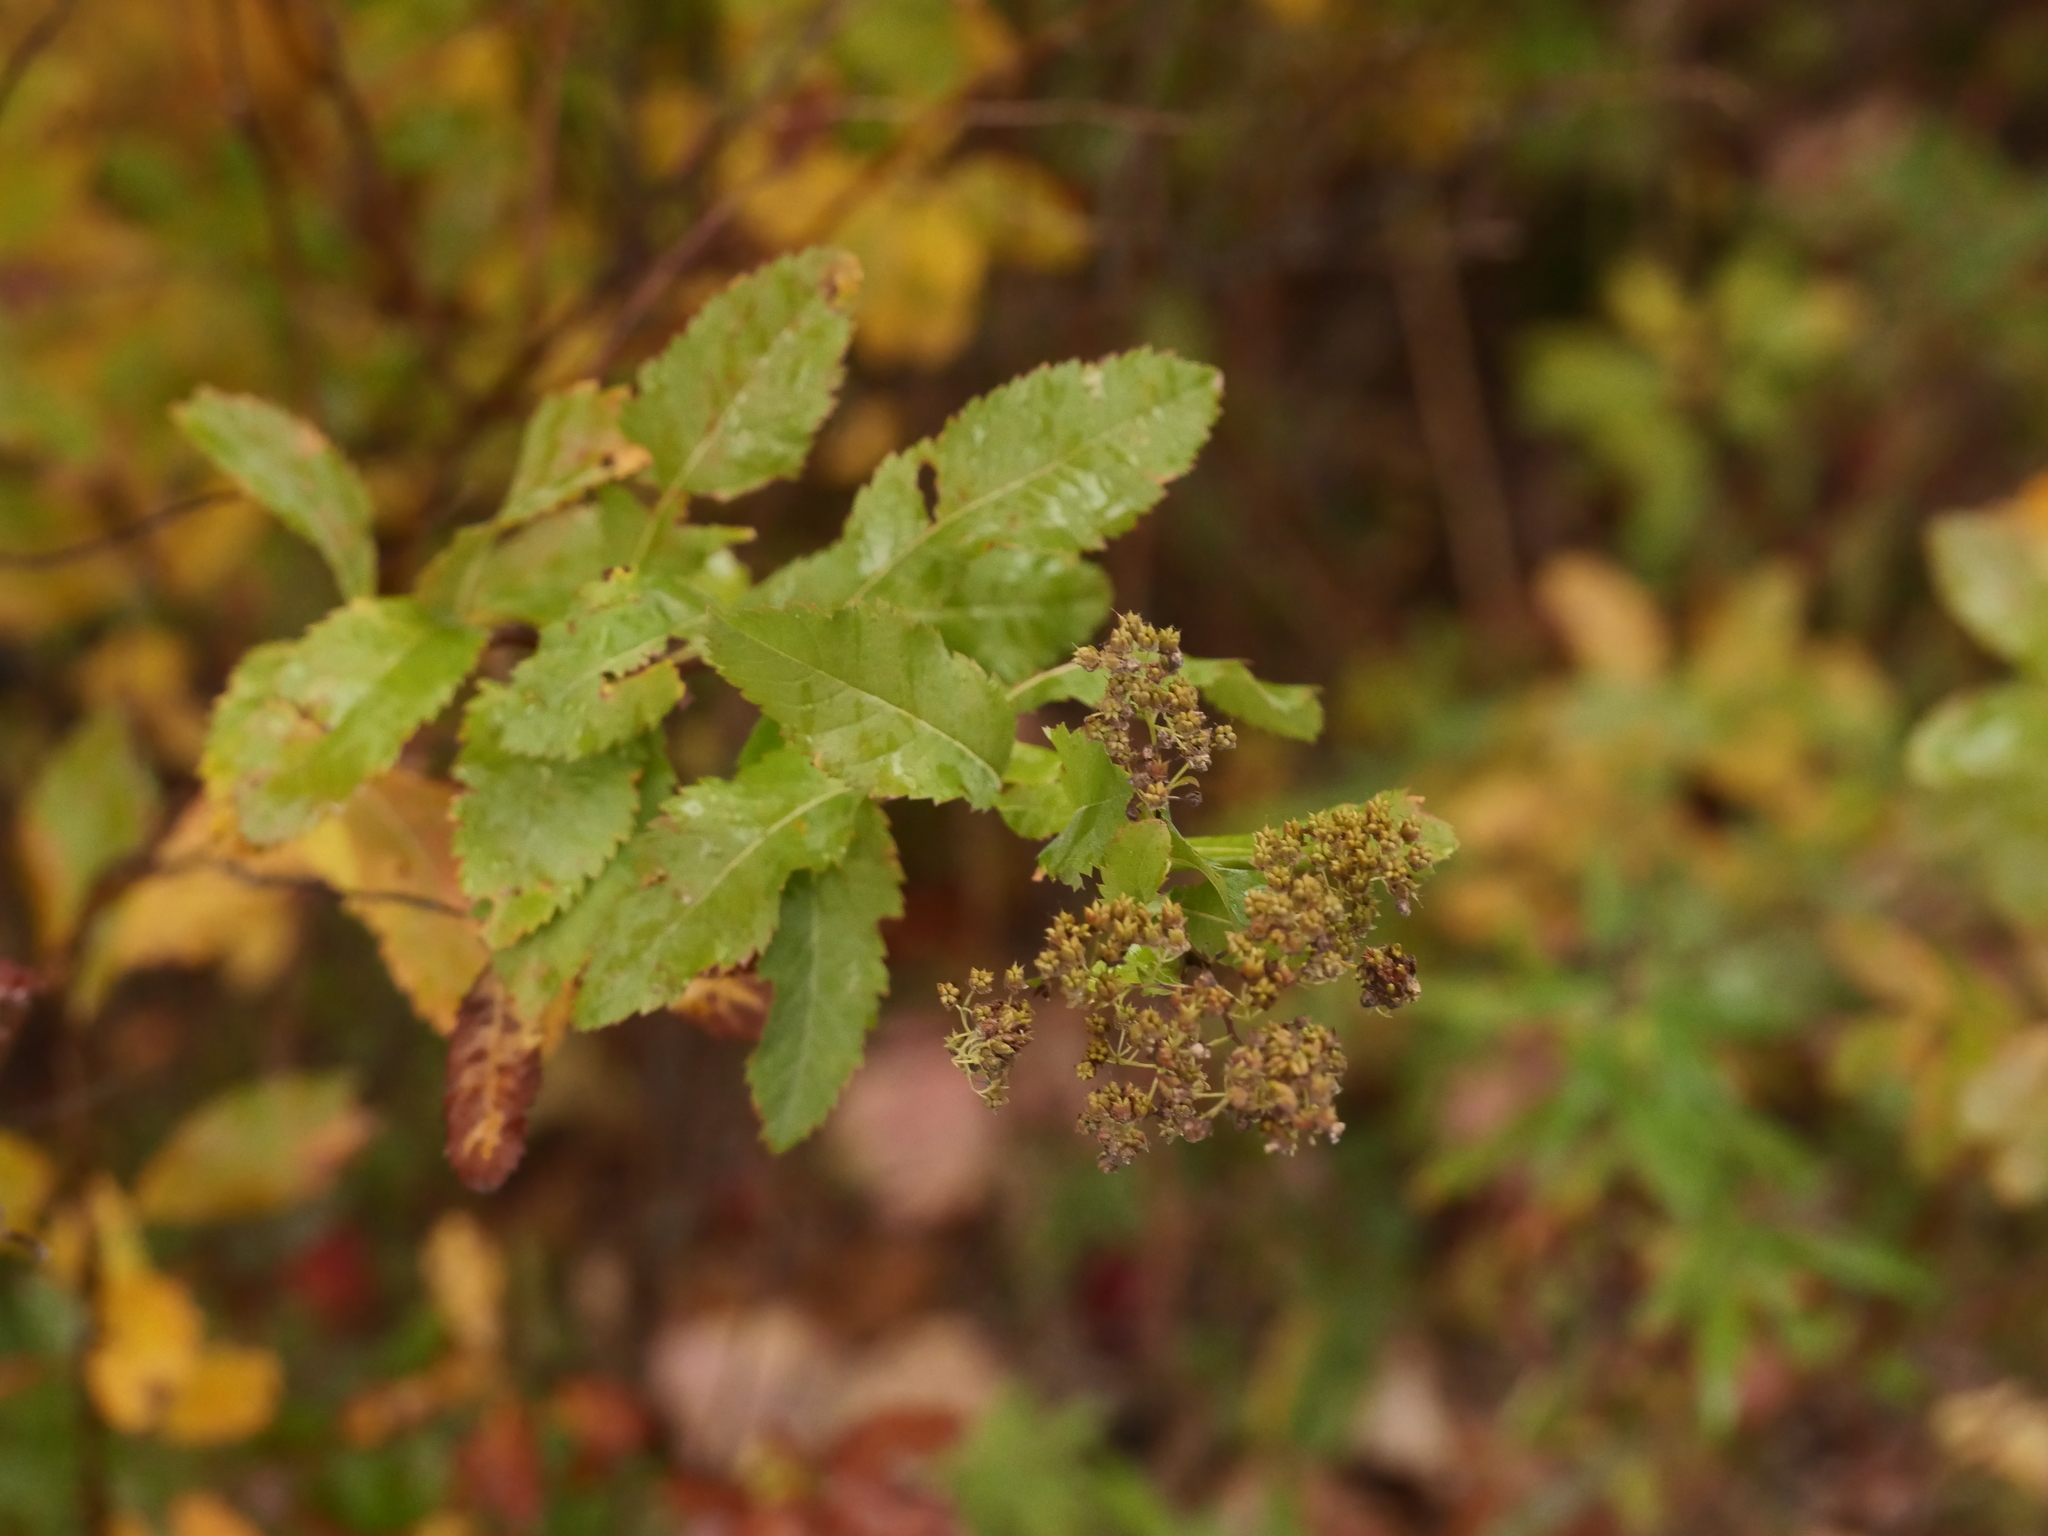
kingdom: Plantae
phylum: Tracheophyta
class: Magnoliopsida
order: Rosales
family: Rosaceae
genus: Spiraea
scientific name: Spiraea alba
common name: Pale bridewort
